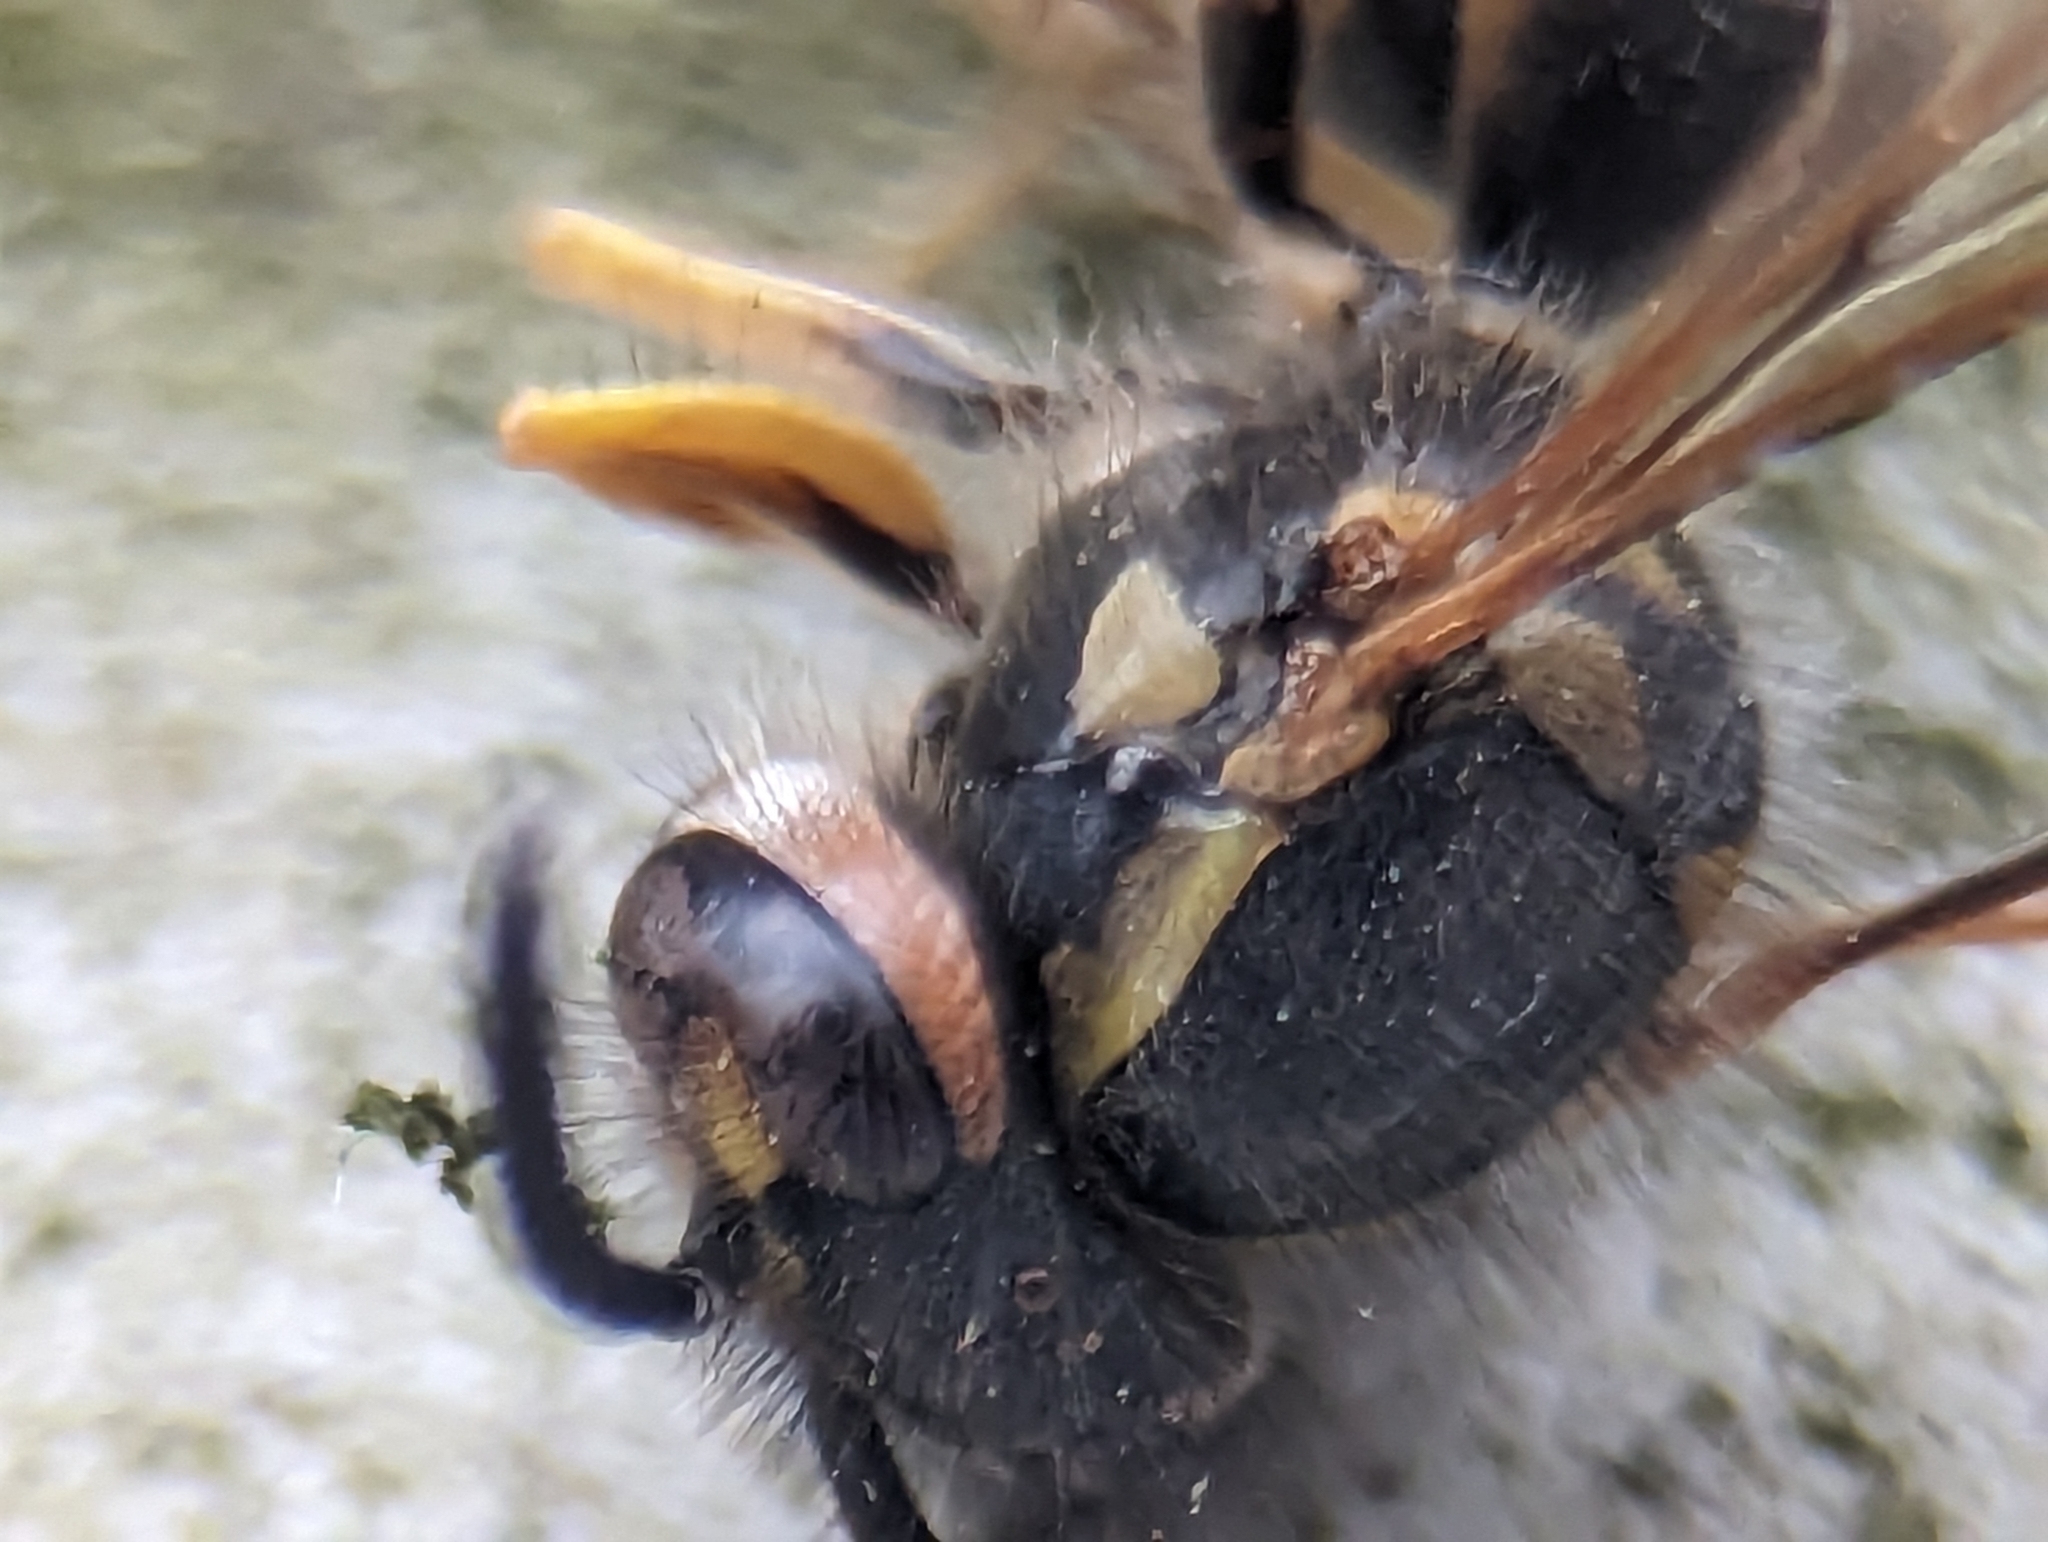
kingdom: Animalia
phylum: Arthropoda
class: Insecta
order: Hymenoptera
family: Vespidae
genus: Vespula
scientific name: Vespula maculifrons
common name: Eastern yellowjacket
